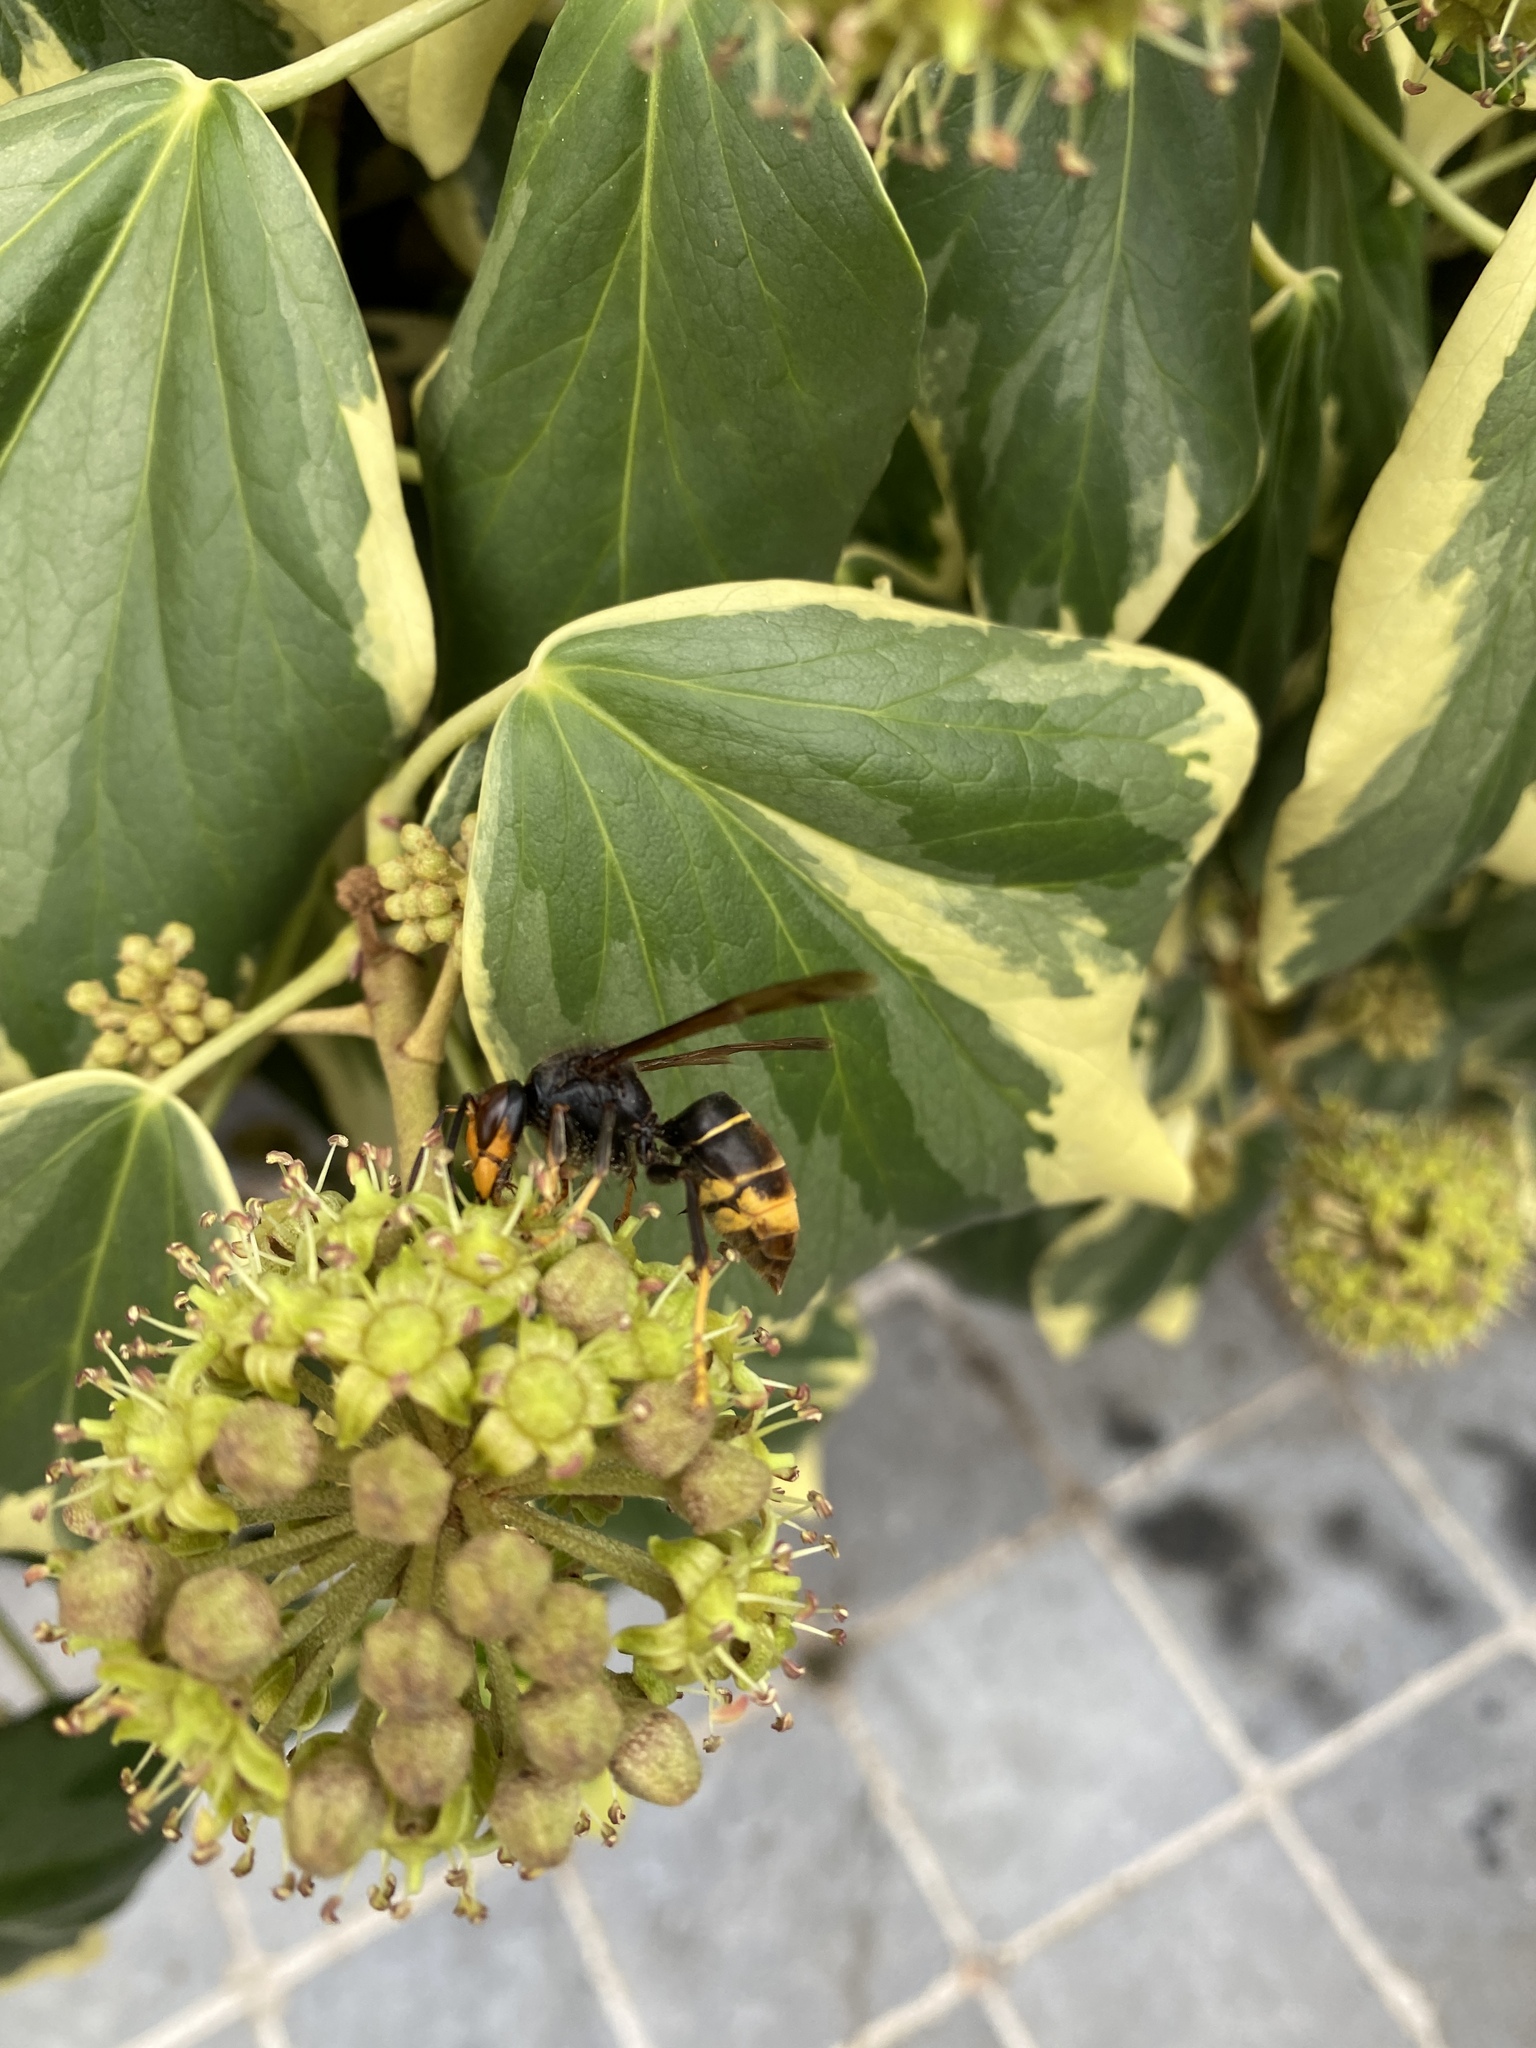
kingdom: Animalia
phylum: Arthropoda
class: Insecta
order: Hymenoptera
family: Vespidae
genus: Vespa
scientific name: Vespa velutina
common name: Asian hornet
